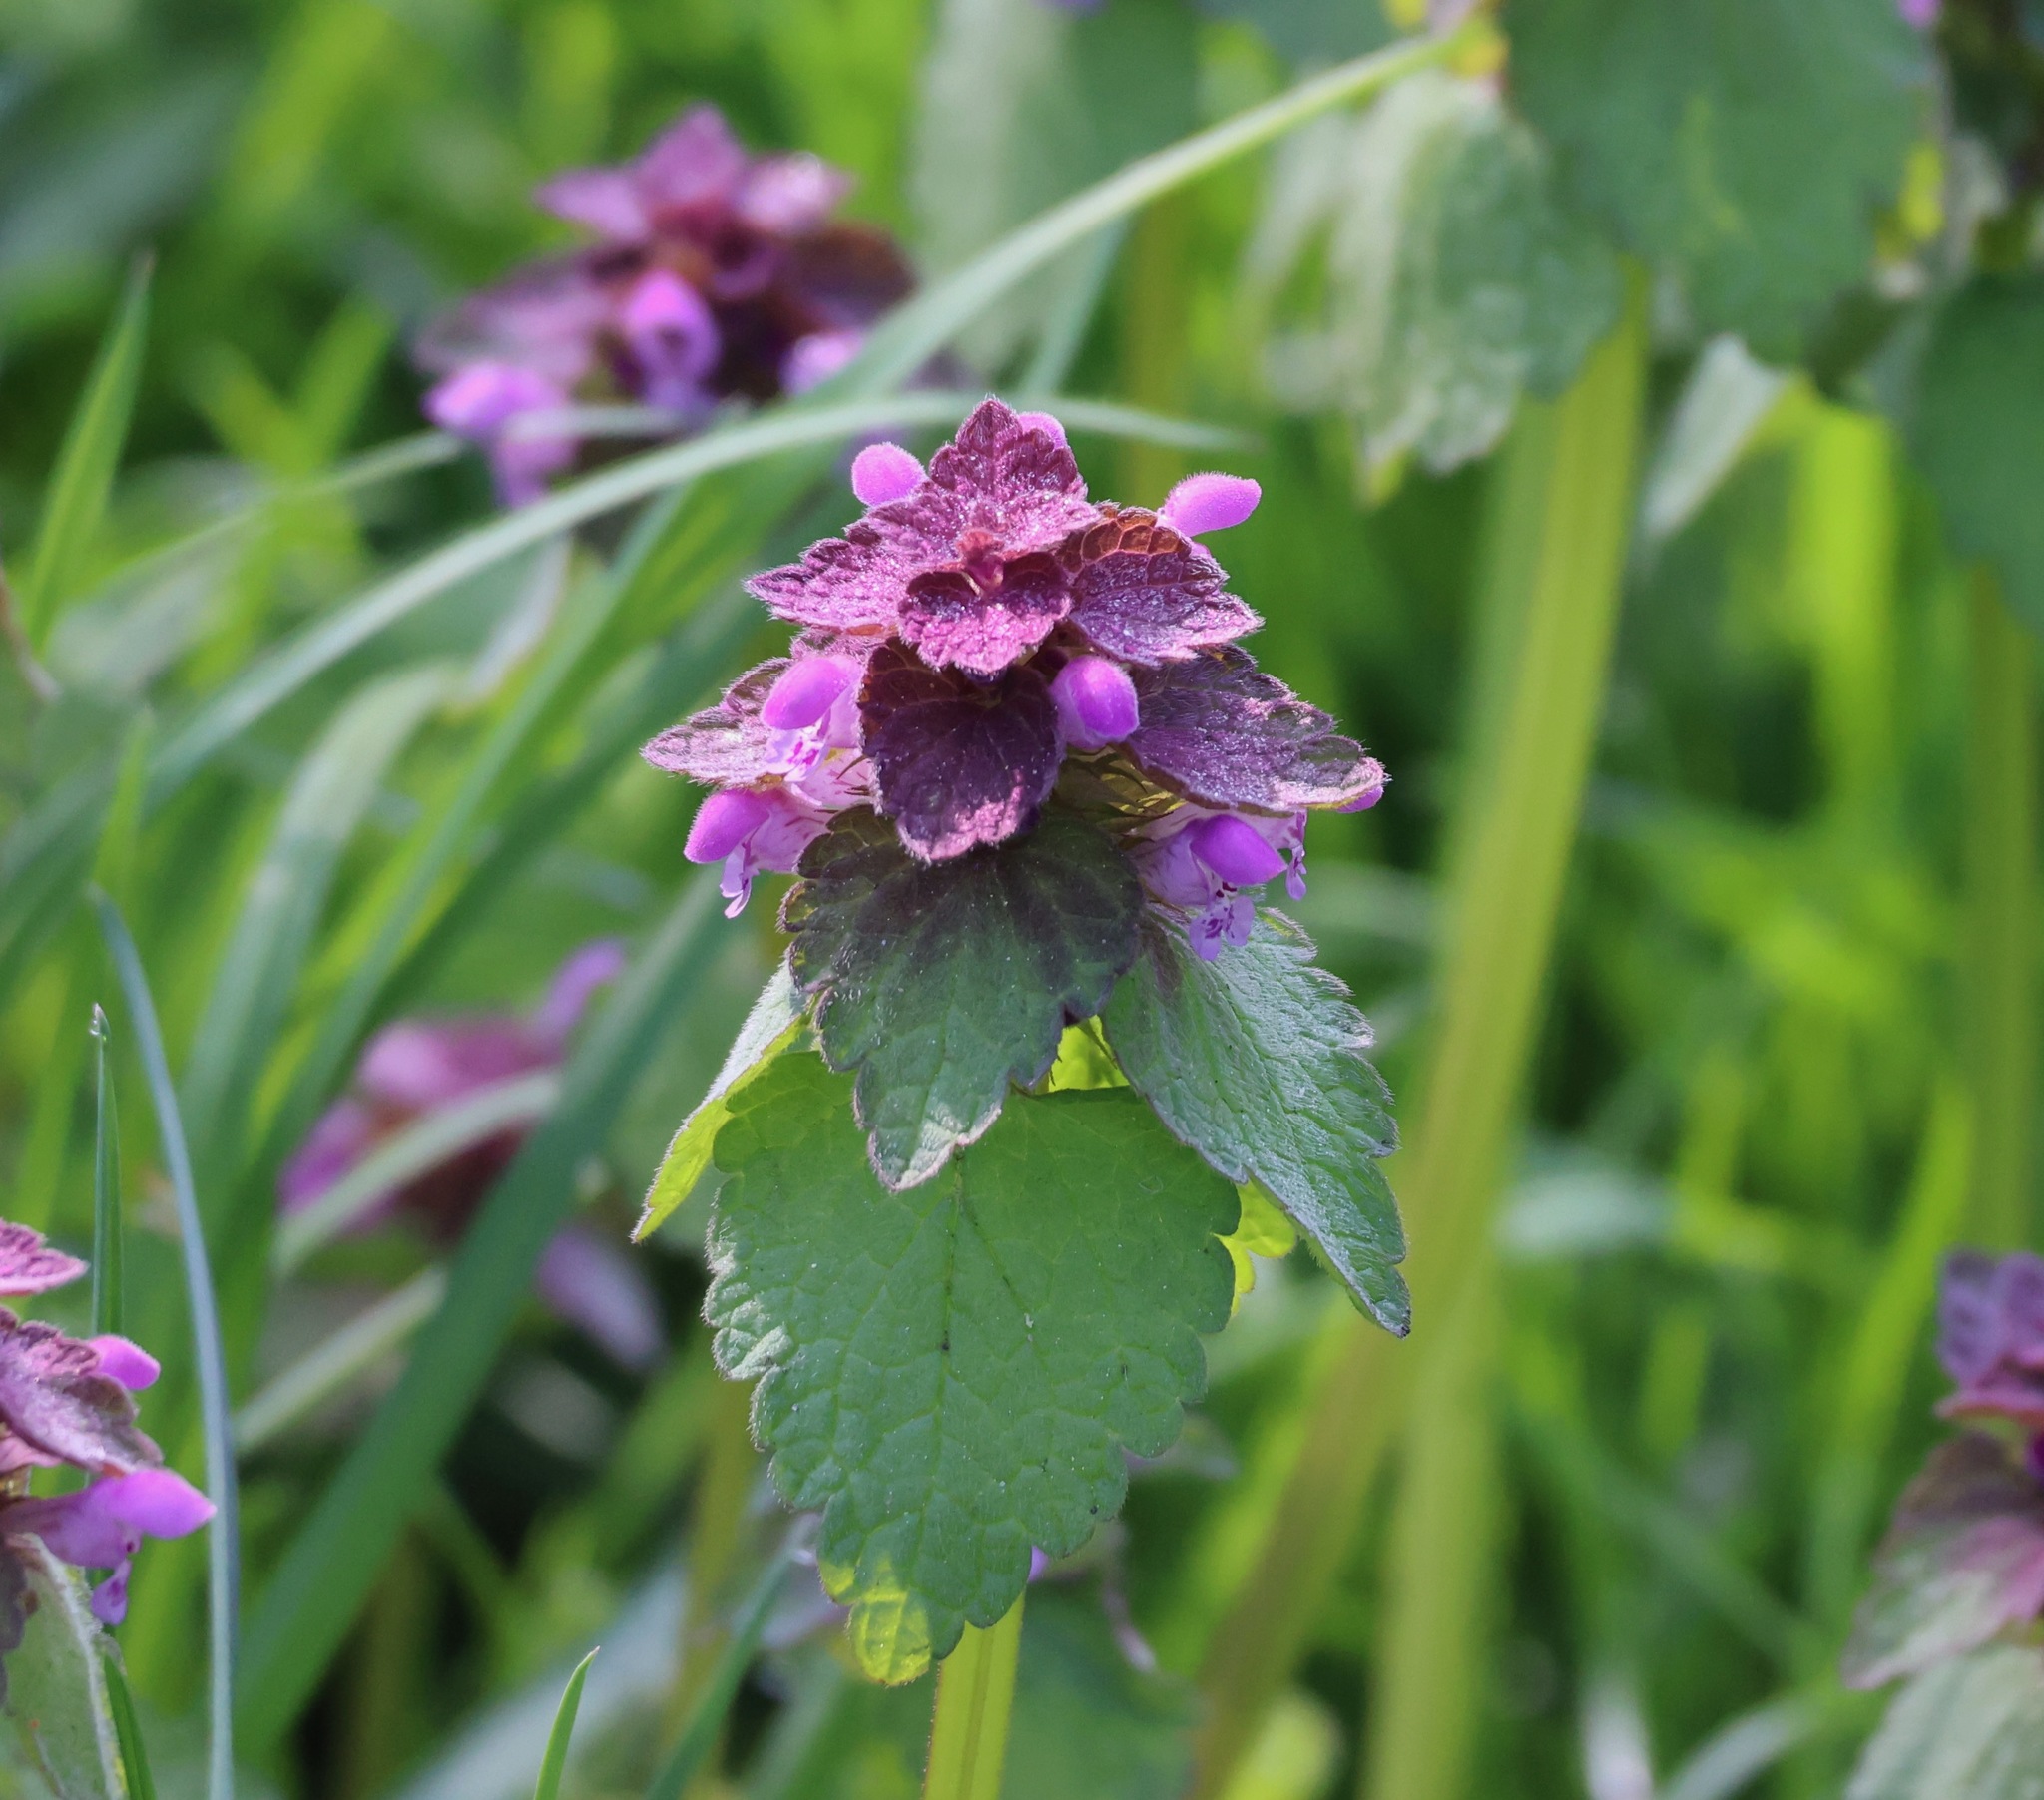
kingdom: Plantae
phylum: Tracheophyta
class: Magnoliopsida
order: Lamiales
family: Lamiaceae
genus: Lamium
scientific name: Lamium purpureum
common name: Red dead-nettle
